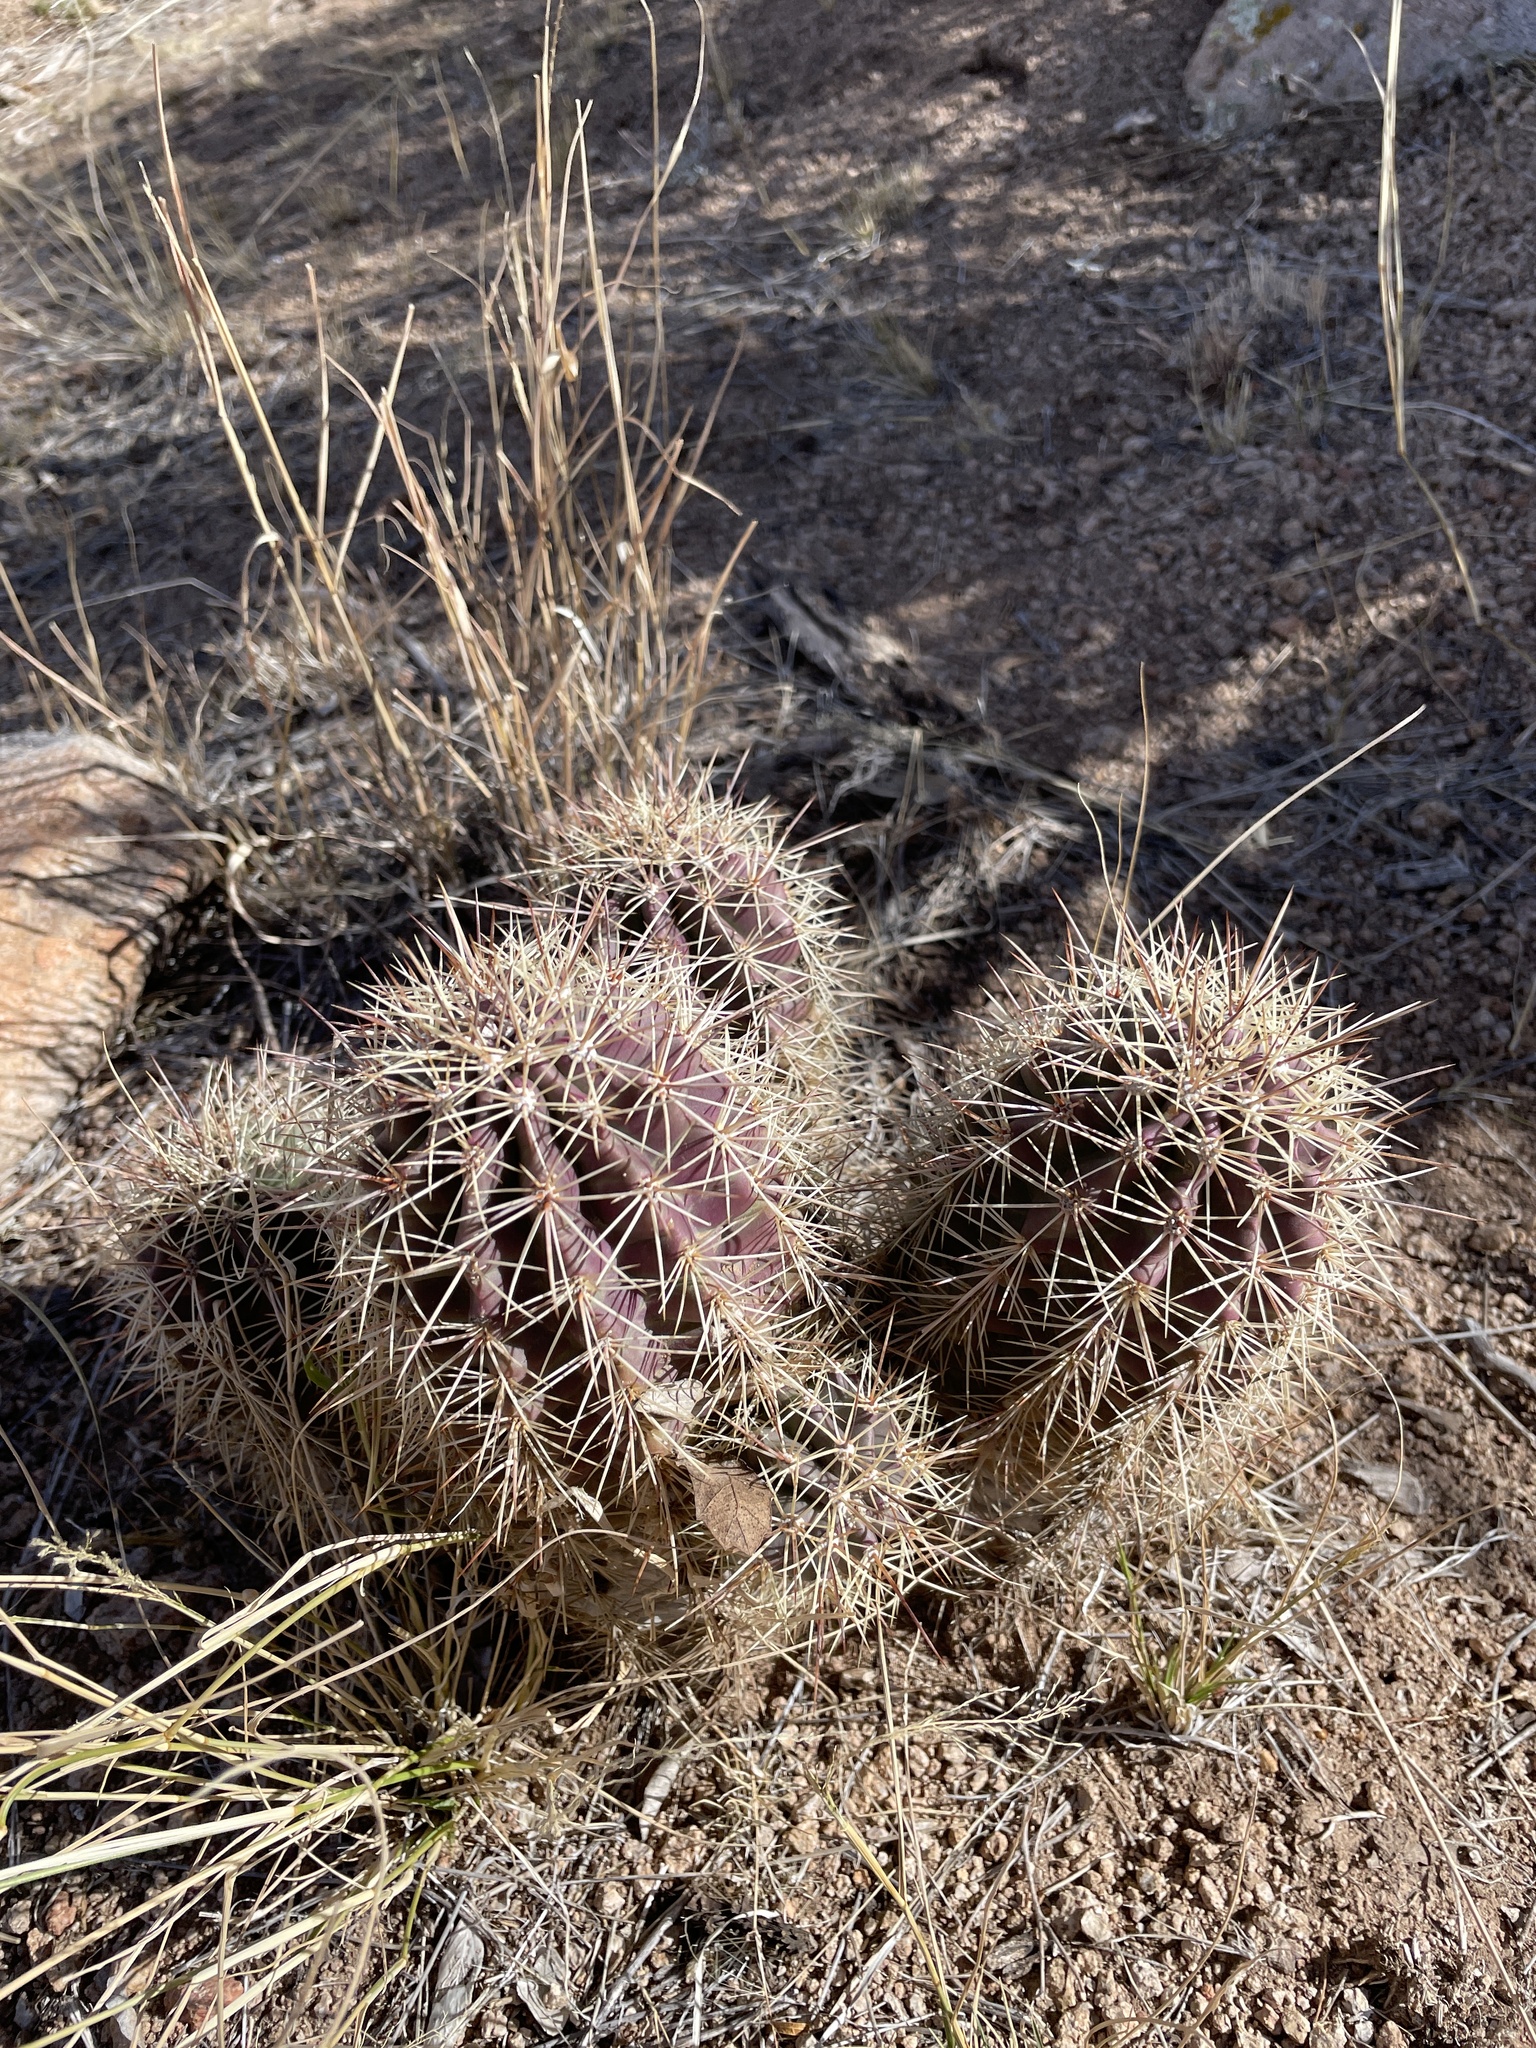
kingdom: Plantae
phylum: Tracheophyta
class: Magnoliopsida
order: Caryophyllales
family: Cactaceae
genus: Echinocereus
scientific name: Echinocereus coccineus
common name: Scarlet hedgehog cactus
